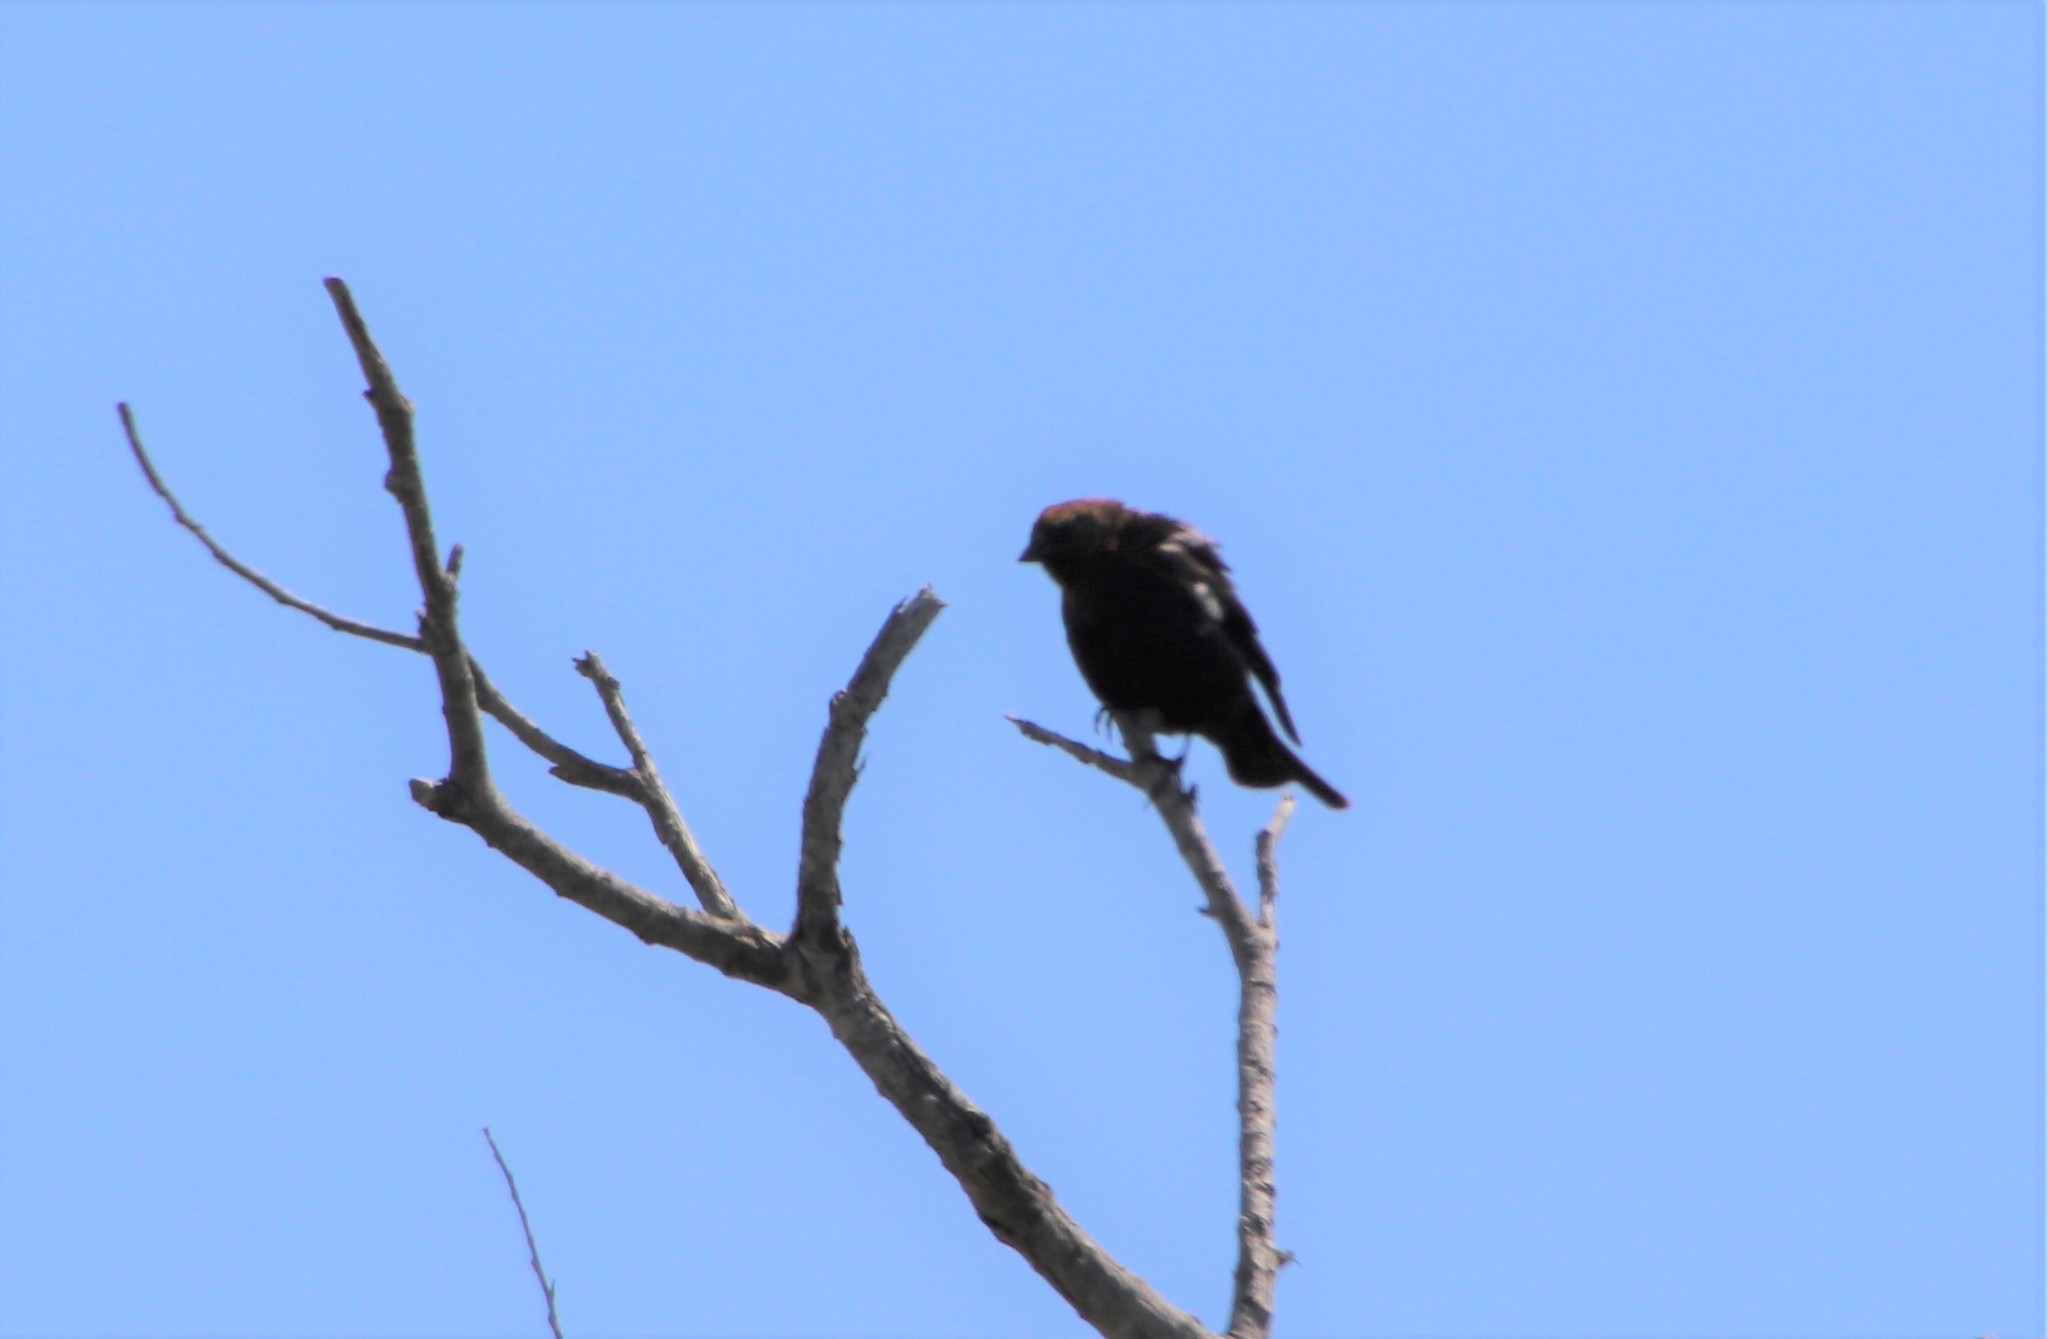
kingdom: Animalia
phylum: Chordata
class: Aves
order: Passeriformes
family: Icteridae
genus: Molothrus
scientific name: Molothrus ater
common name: Brown-headed cowbird
